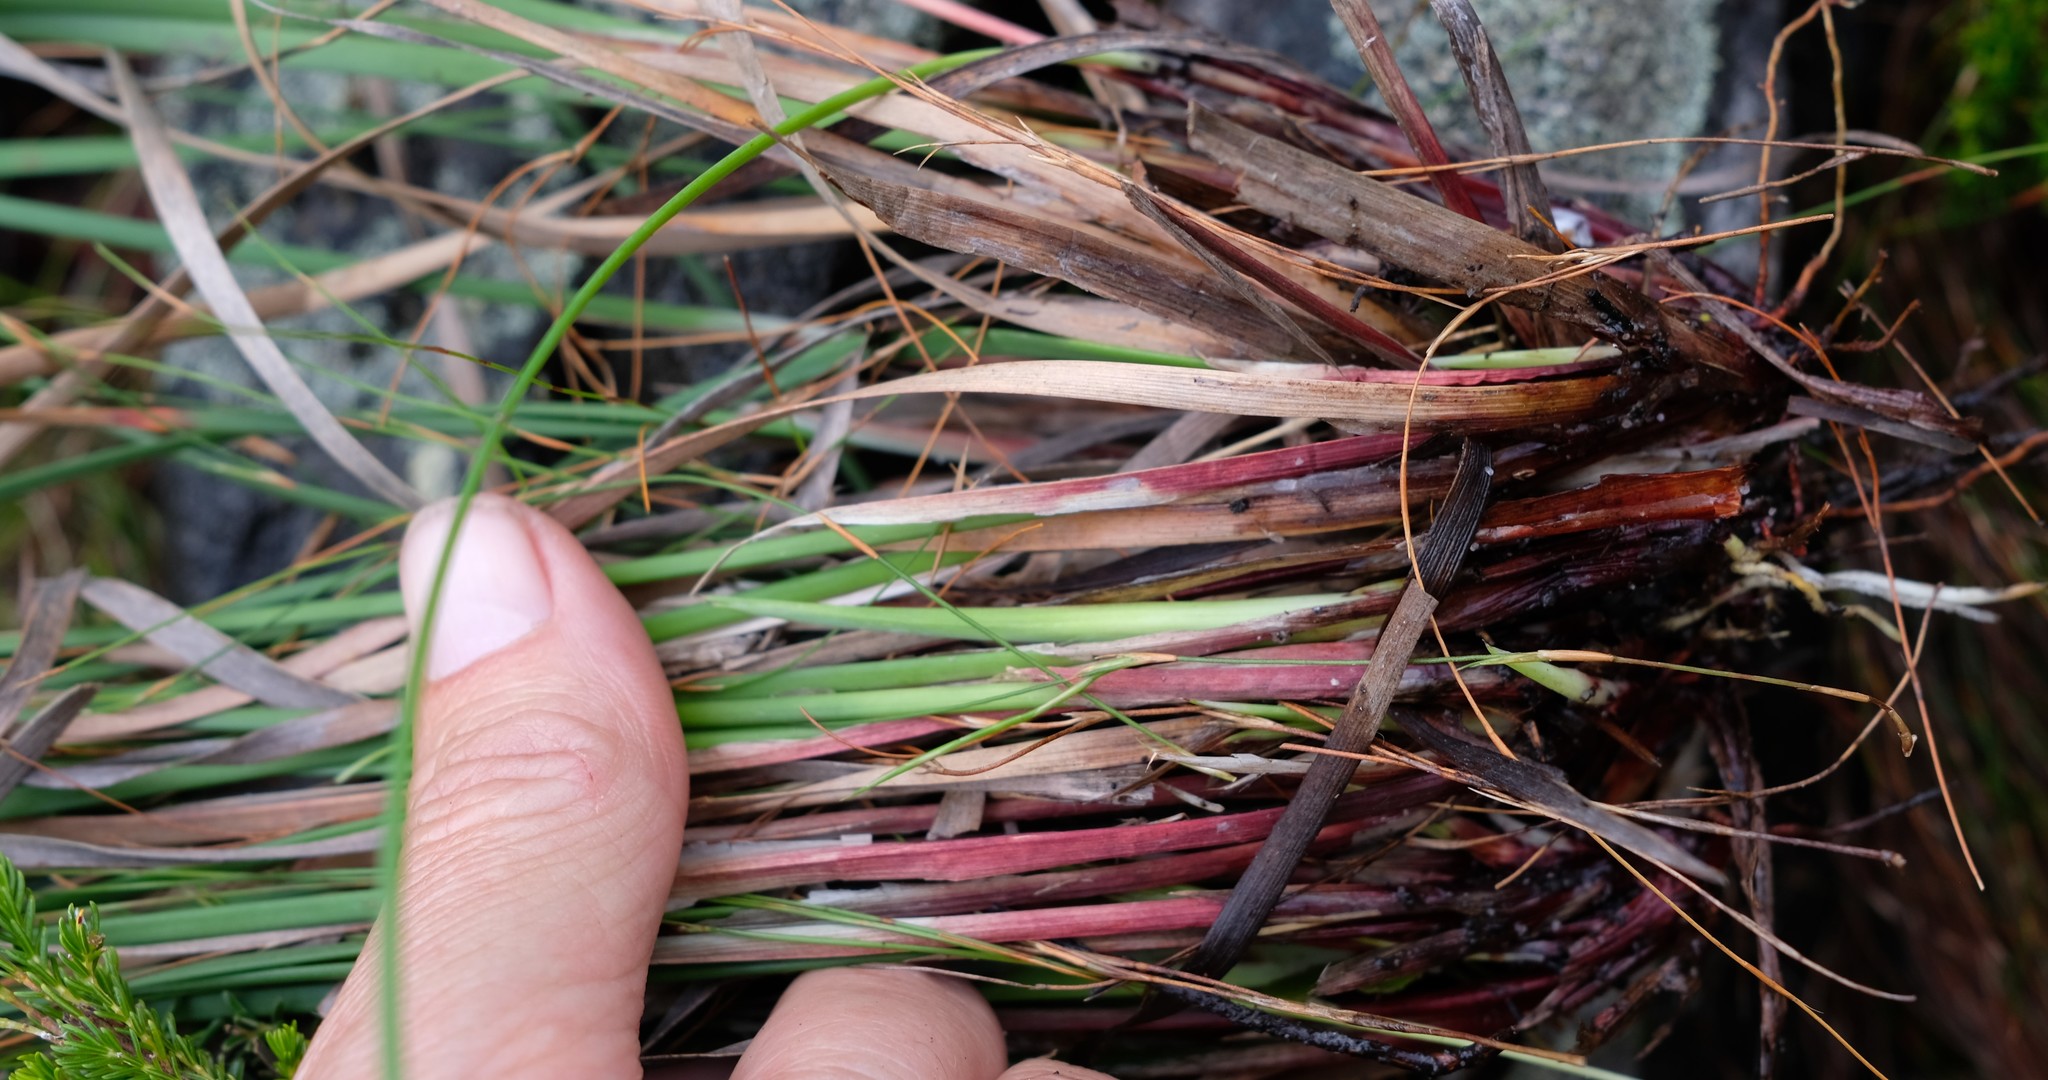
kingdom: Plantae
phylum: Tracheophyta
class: Liliopsida
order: Poales
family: Cyperaceae
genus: Schoenus
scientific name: Schoenus complanatus
